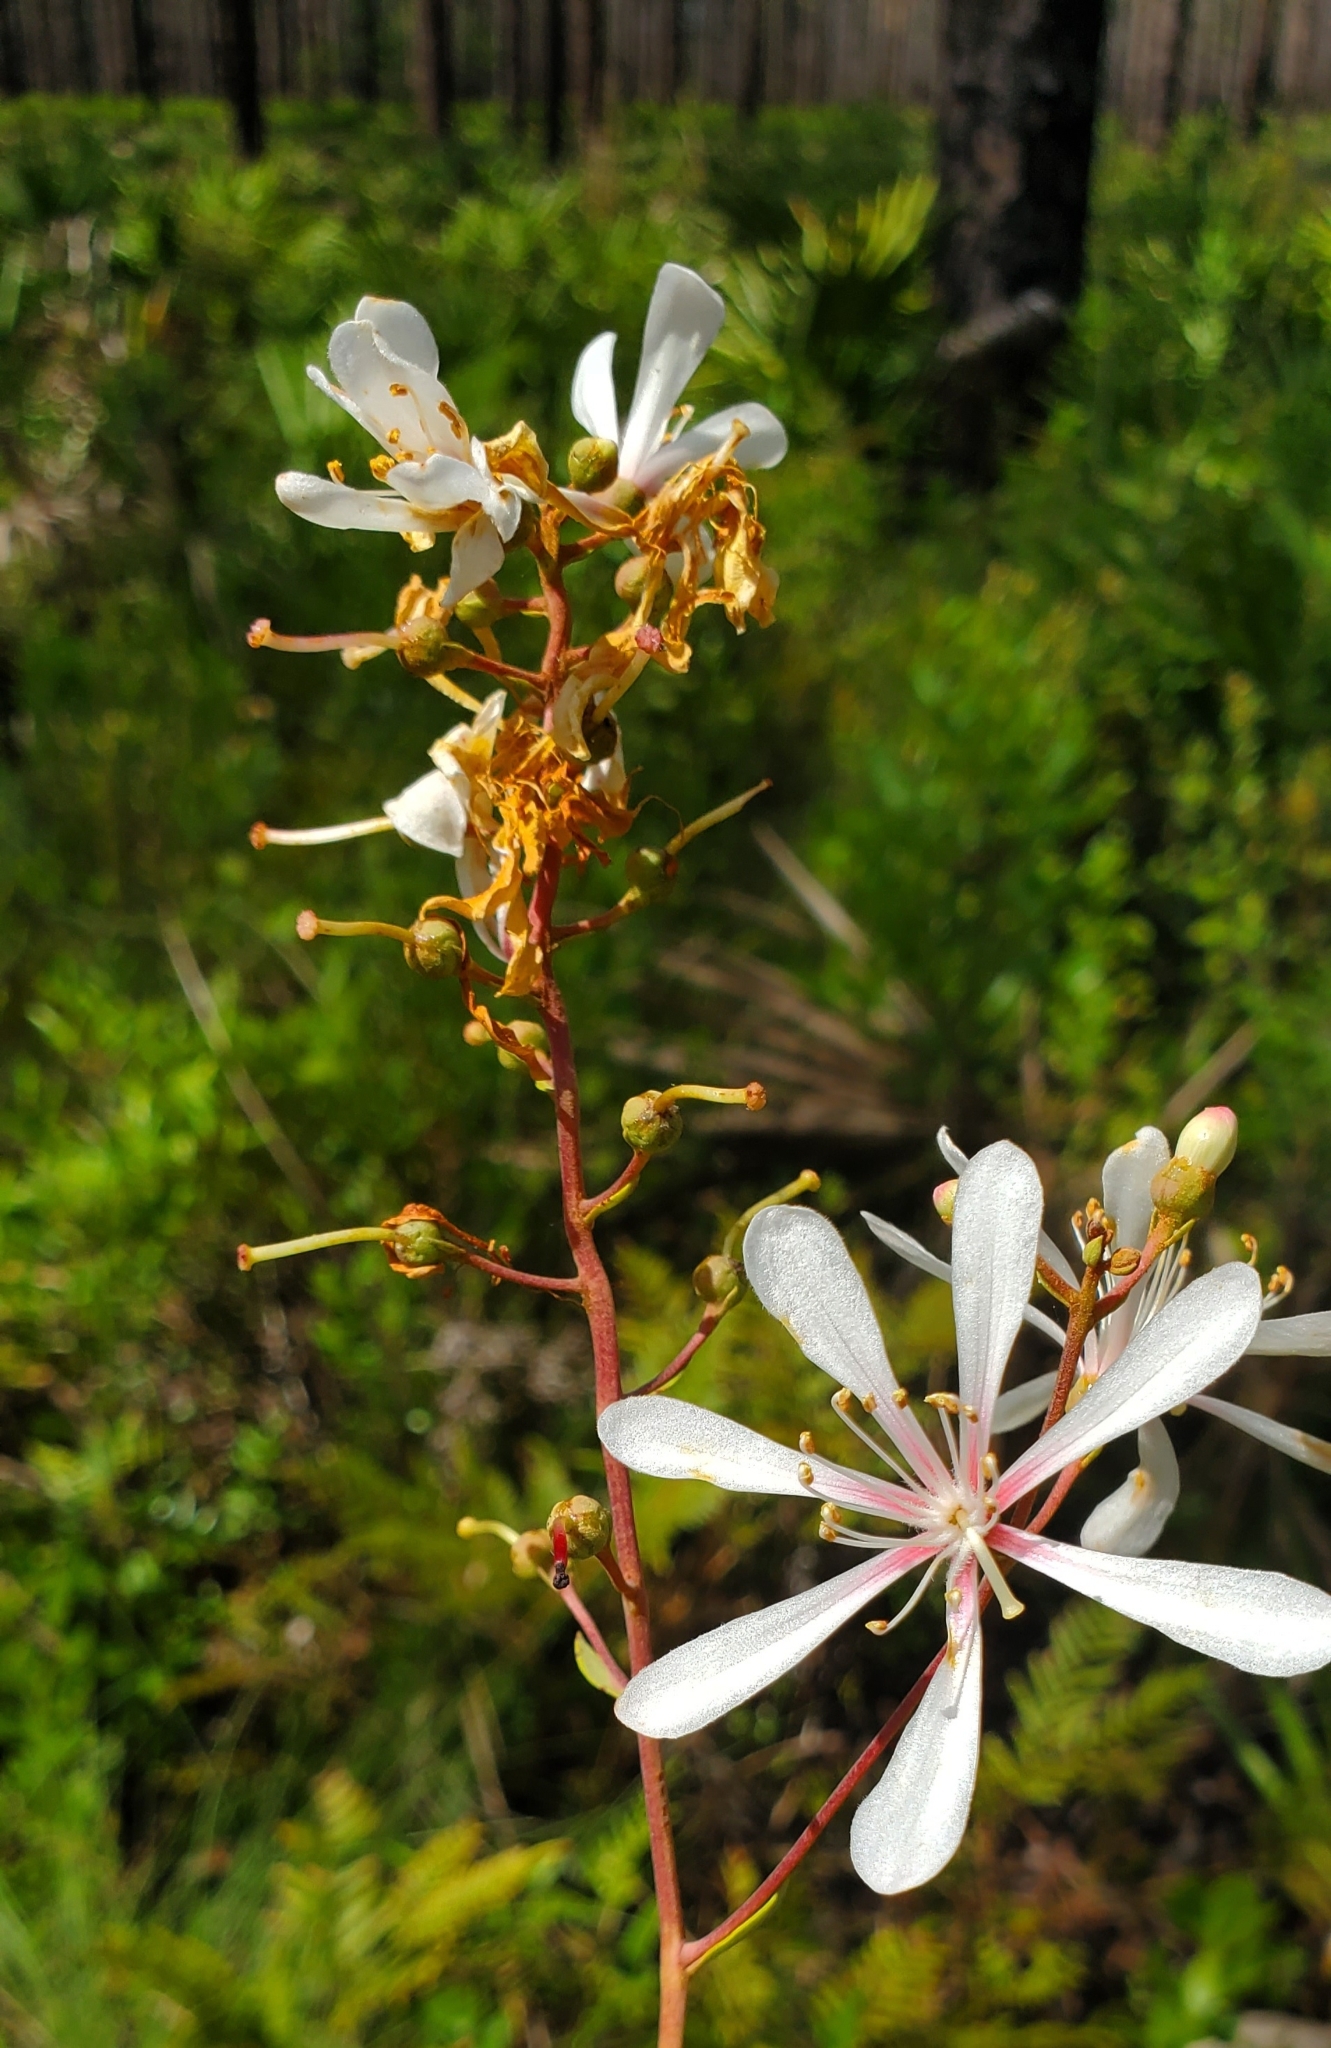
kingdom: Plantae
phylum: Tracheophyta
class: Magnoliopsida
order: Ericales
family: Ericaceae
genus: Bejaria
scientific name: Bejaria racemosa
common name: Tarflower
